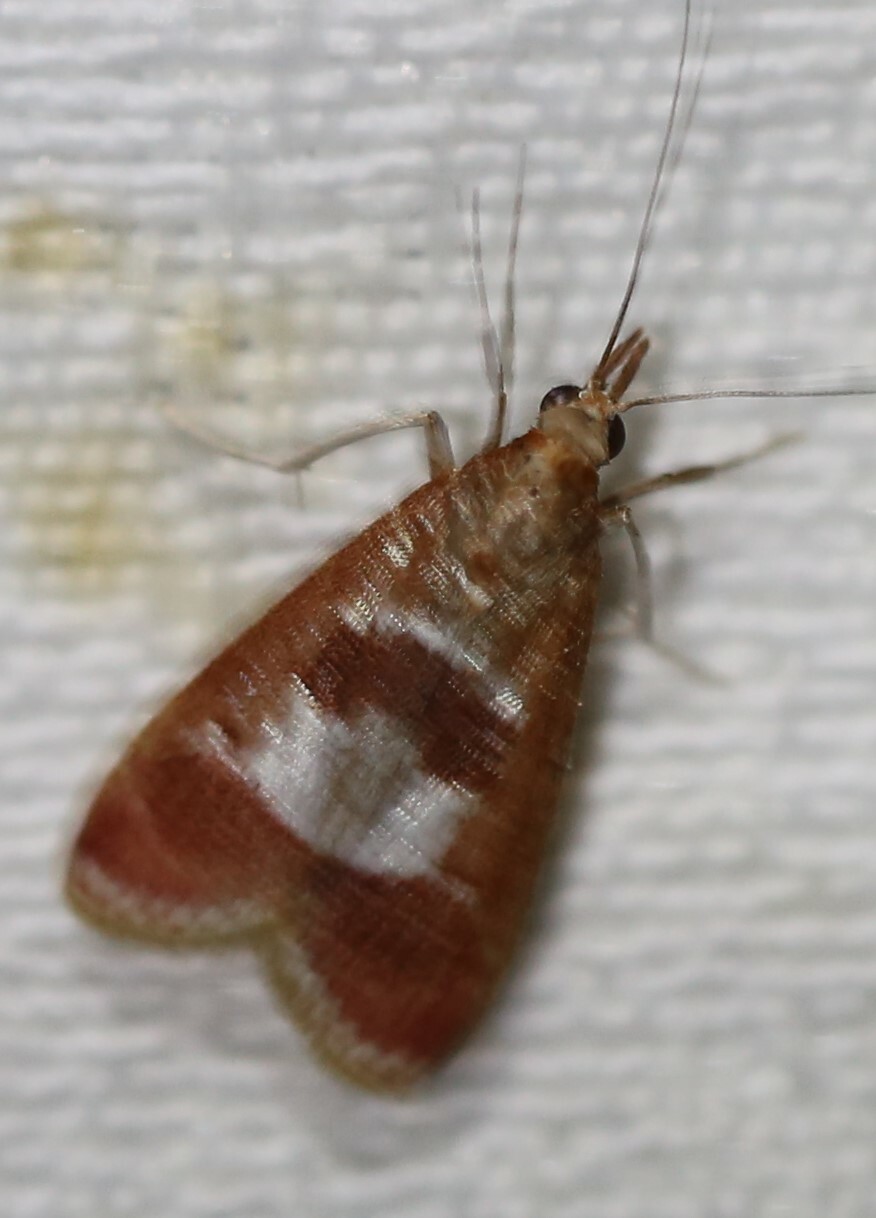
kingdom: Animalia
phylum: Arthropoda
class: Insecta
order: Lepidoptera
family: Crambidae
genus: Syntonarcha
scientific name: Syntonarcha vulnerata
